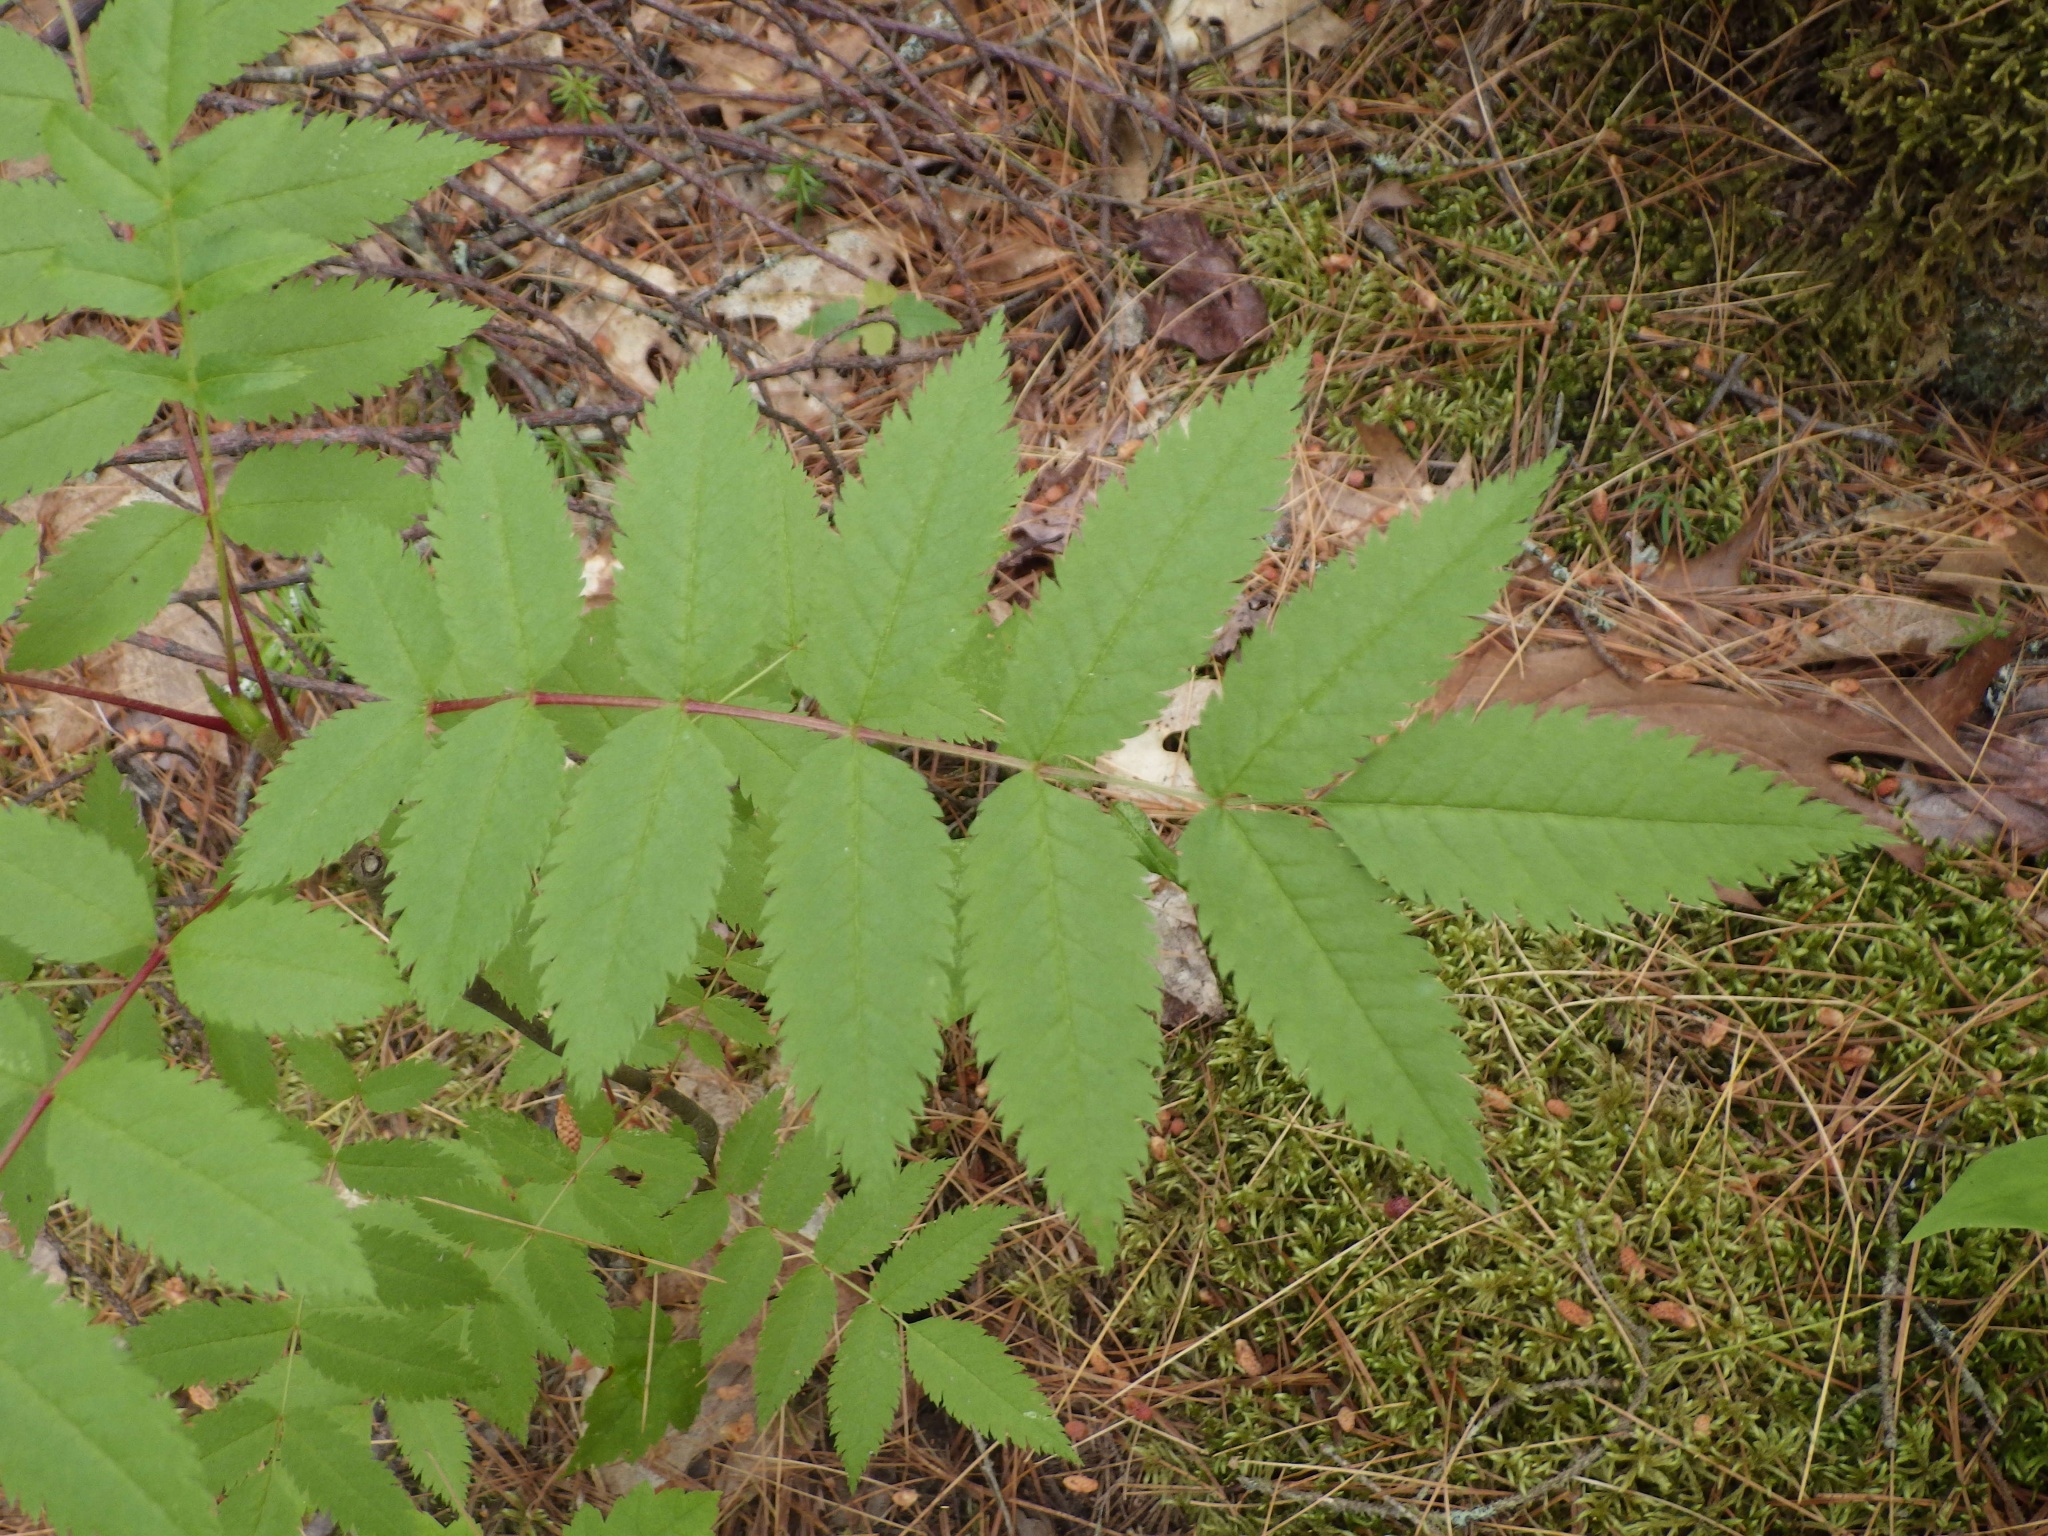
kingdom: Plantae
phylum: Tracheophyta
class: Magnoliopsida
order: Rosales
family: Rosaceae
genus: Sorbus
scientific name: Sorbus americana
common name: American mountain-ash
